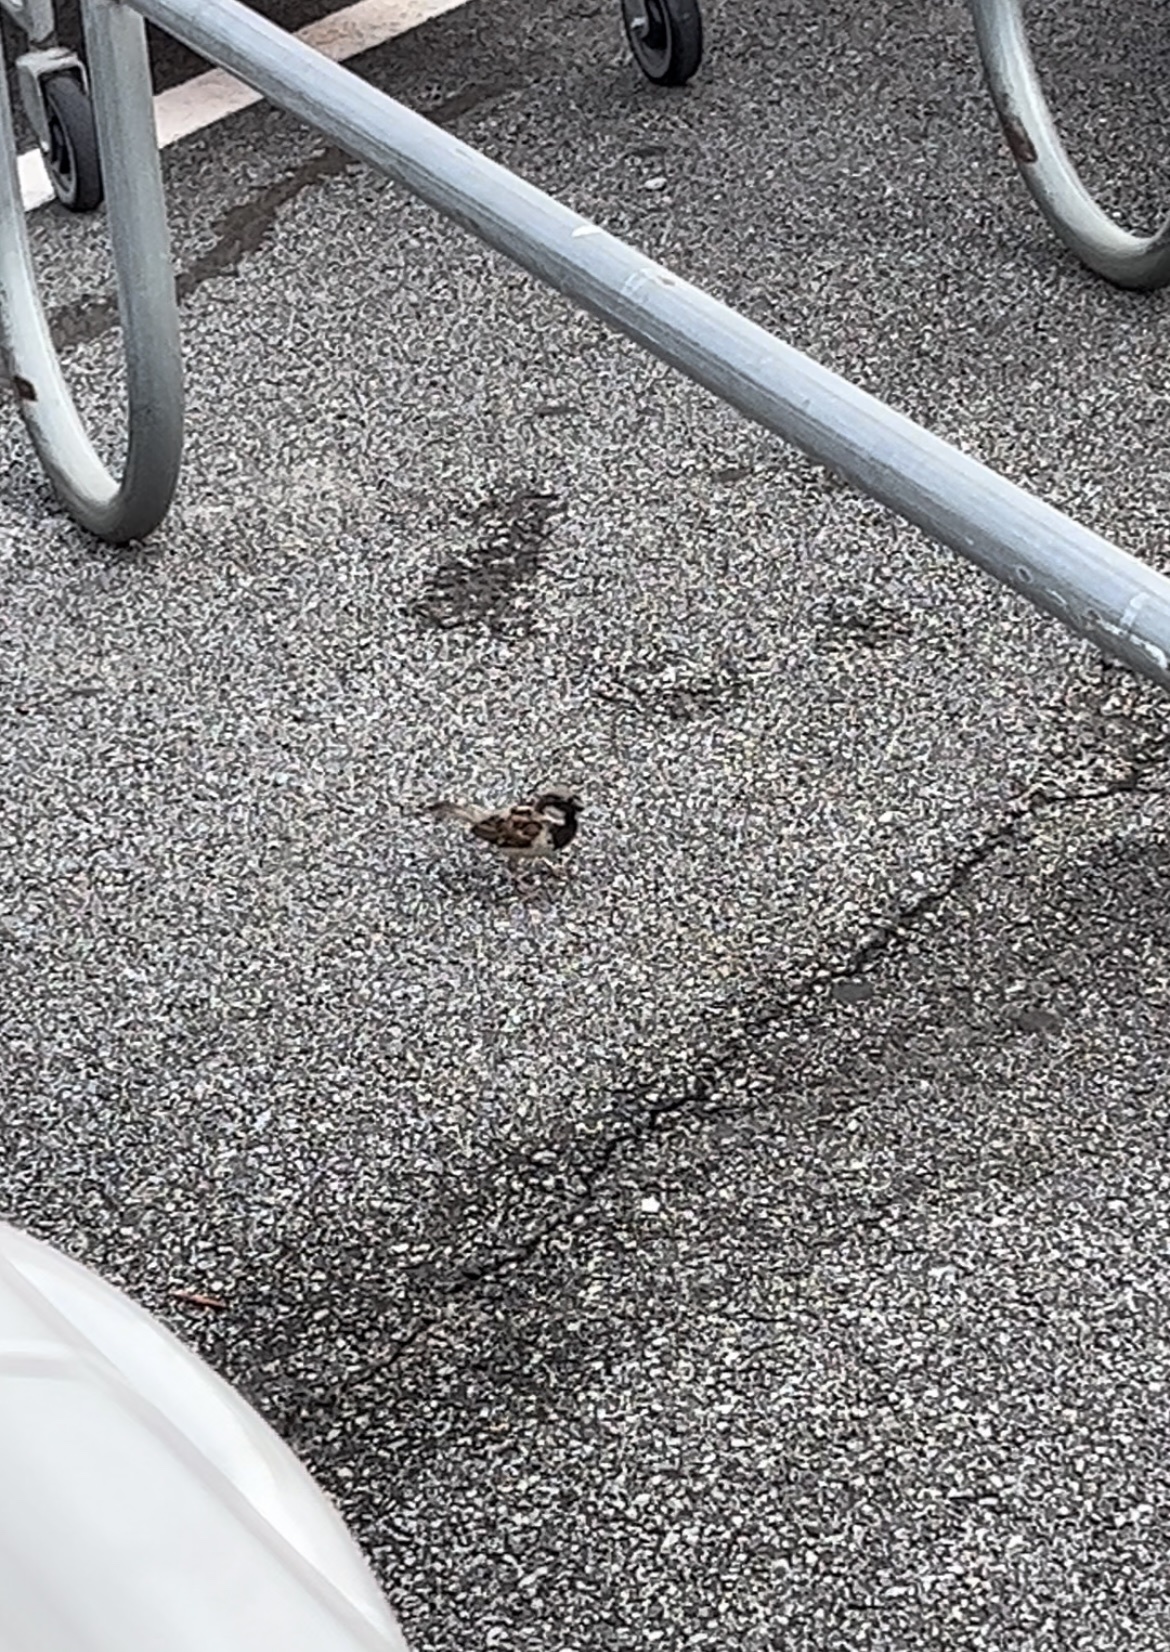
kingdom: Animalia
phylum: Chordata
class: Aves
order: Passeriformes
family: Passeridae
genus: Passer
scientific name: Passer domesticus
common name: House sparrow
